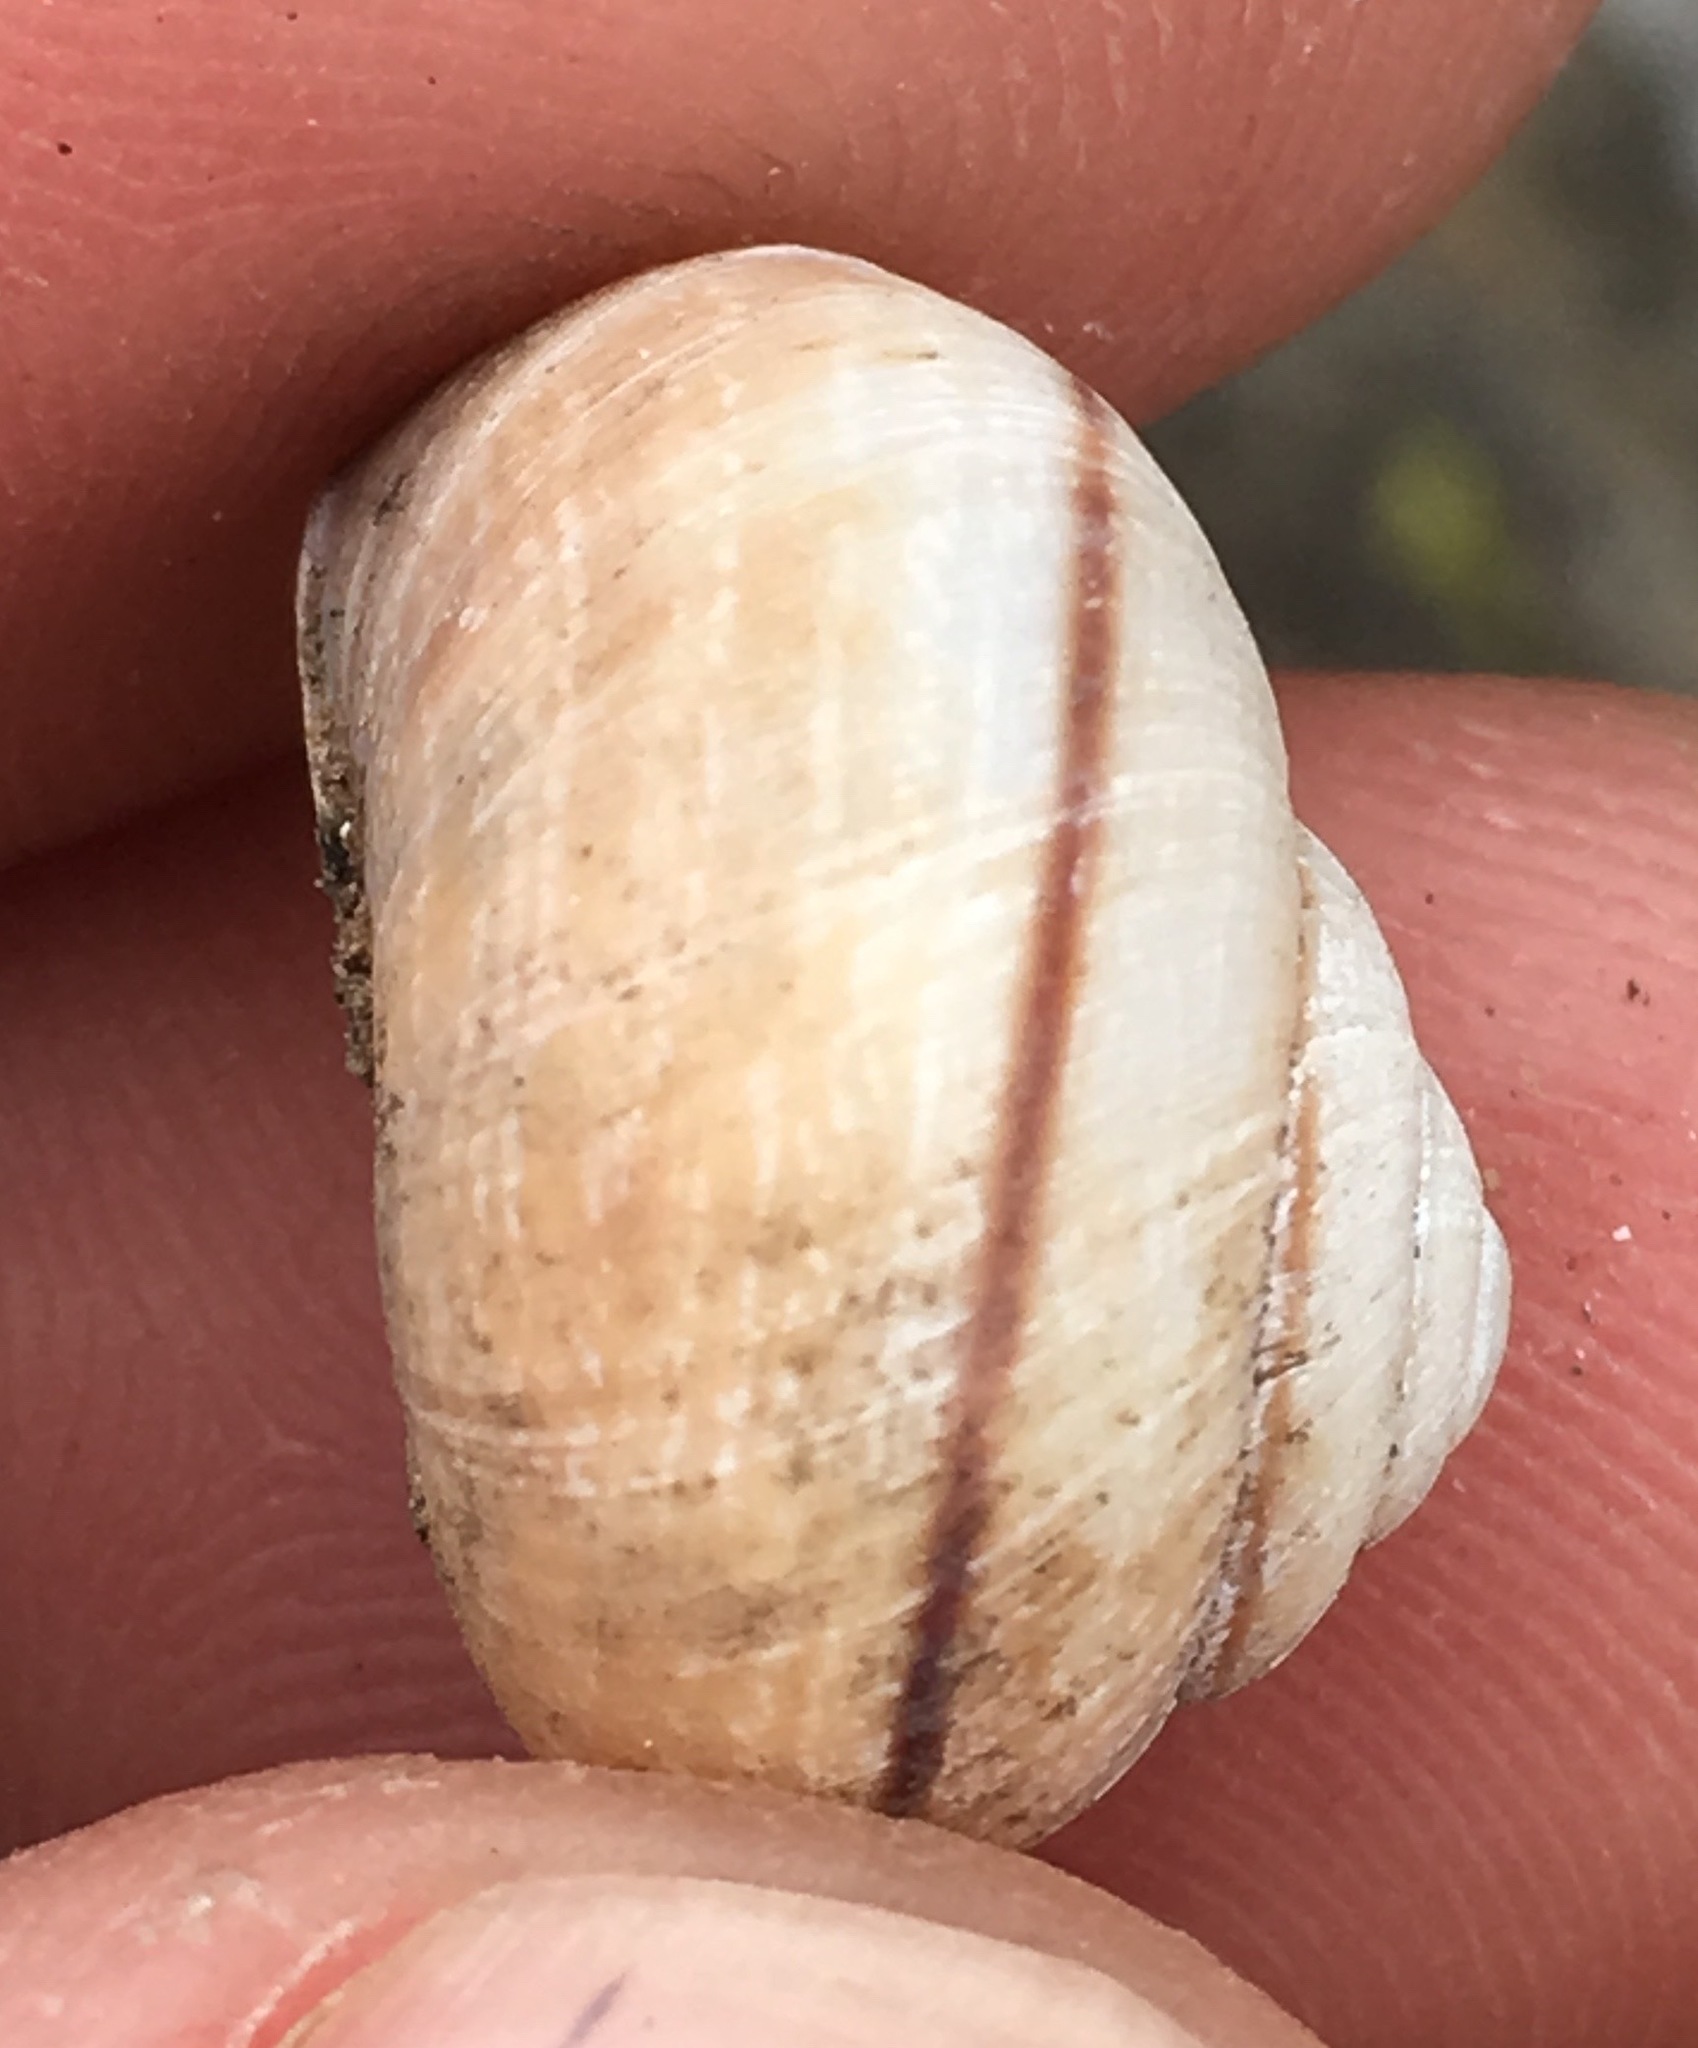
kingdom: Animalia
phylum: Mollusca
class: Gastropoda
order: Stylommatophora
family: Xanthonychidae
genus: Xerarionta
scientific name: Xerarionta redimita
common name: Wreathed cactus snail
